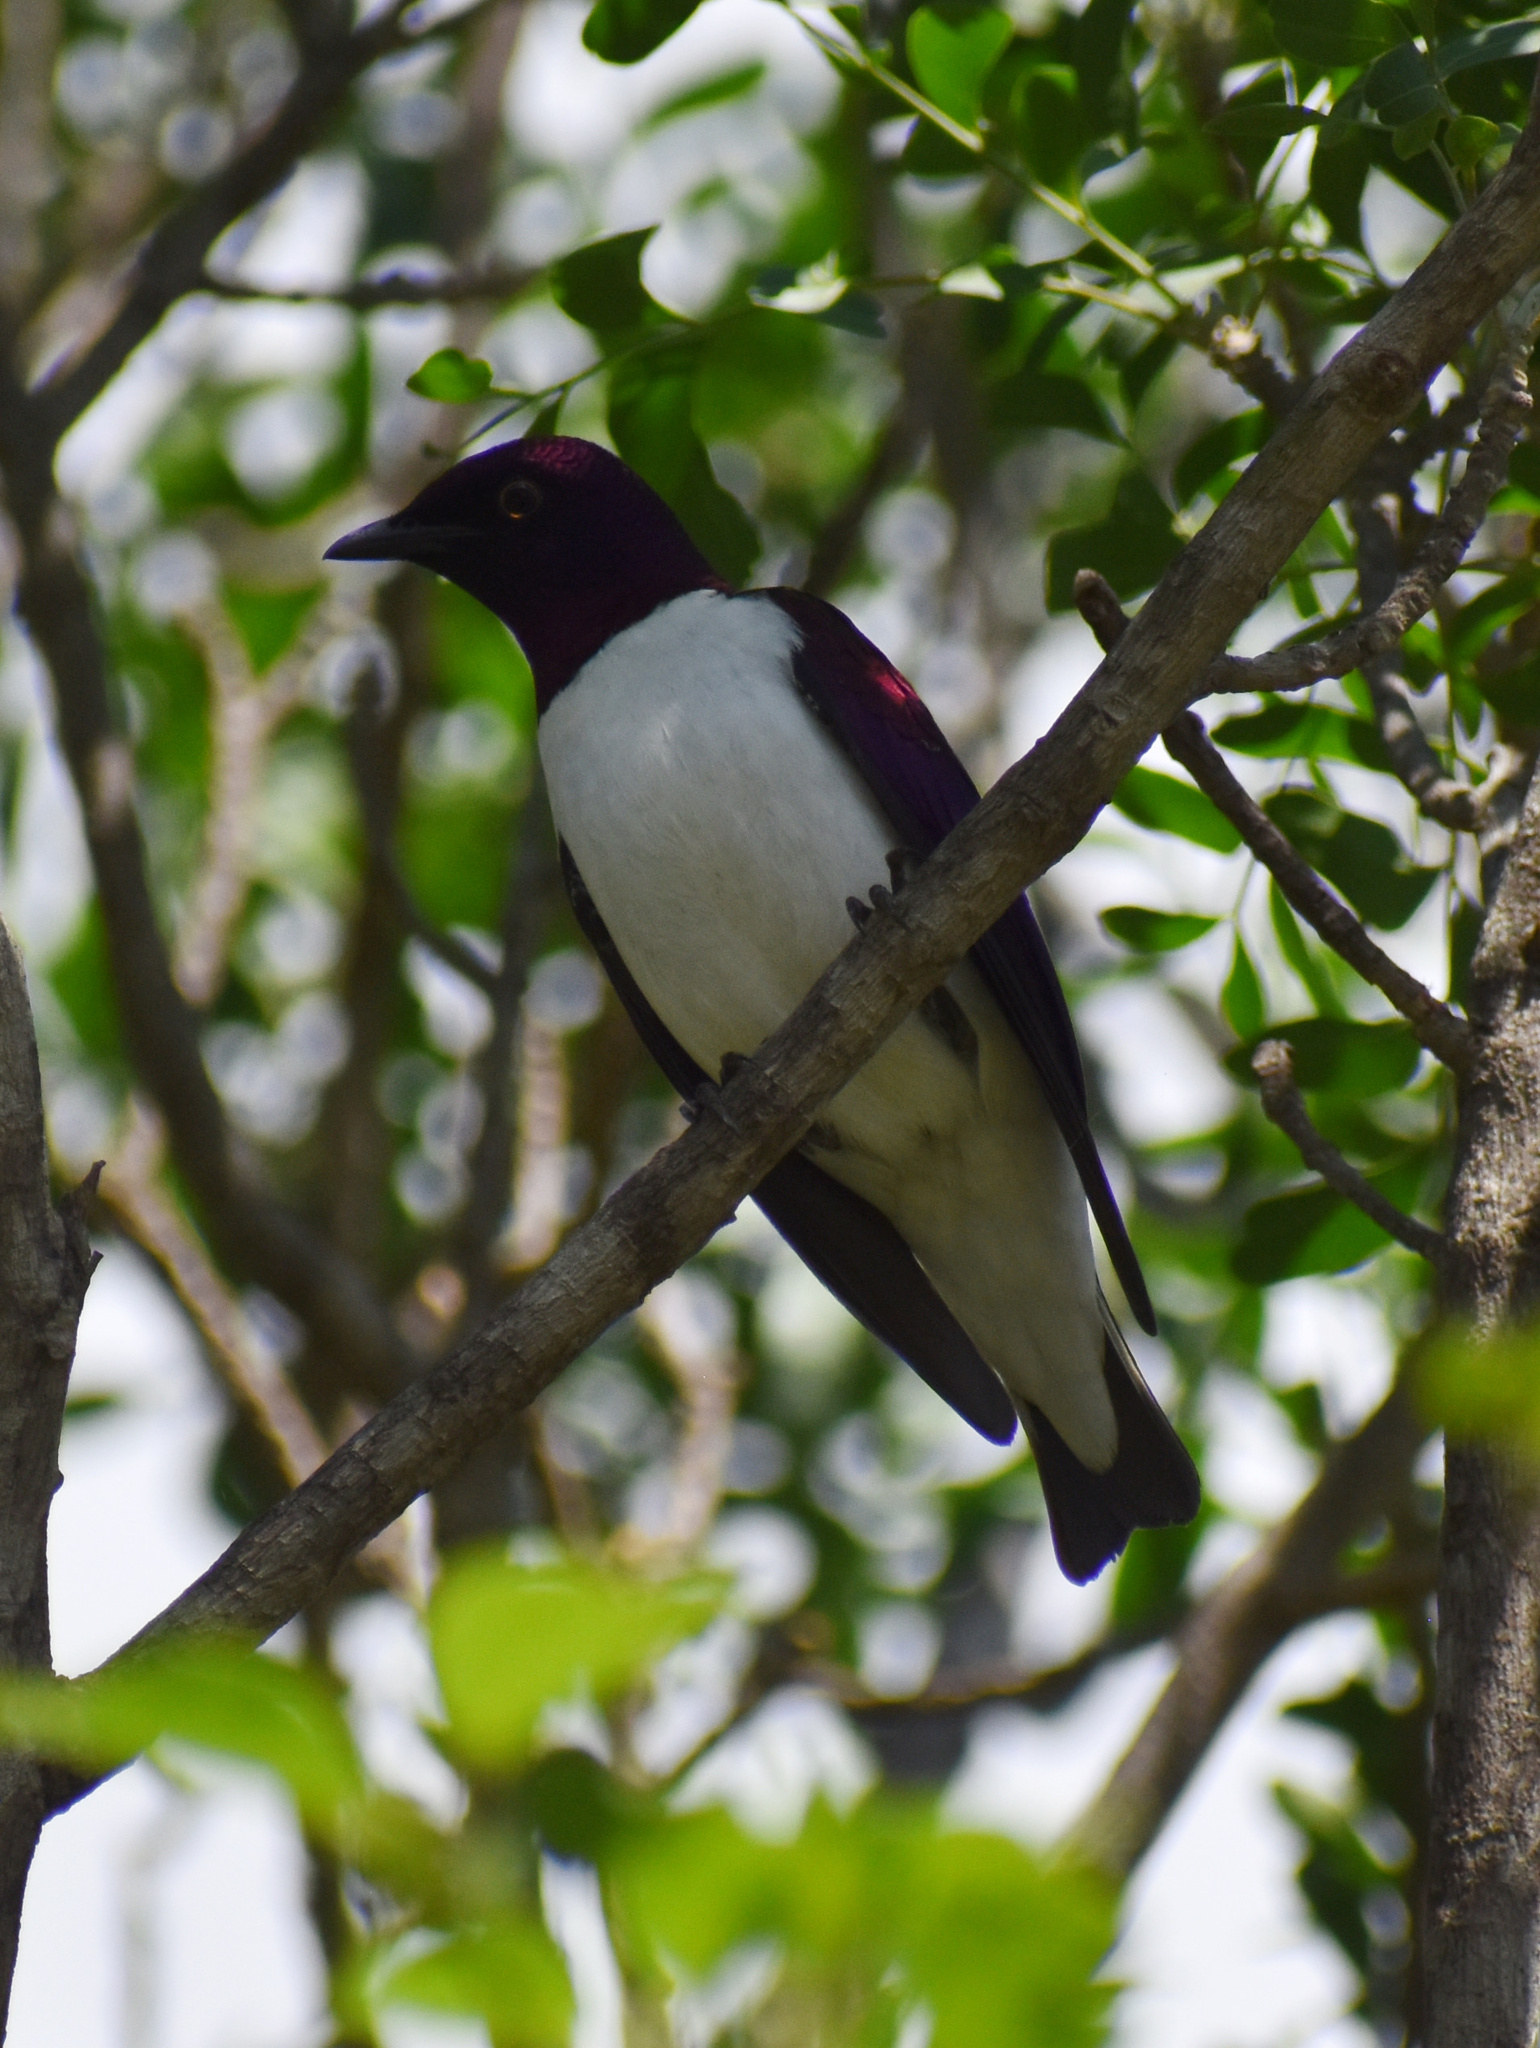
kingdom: Animalia
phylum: Chordata
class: Aves
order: Passeriformes
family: Sturnidae
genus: Cinnyricinclus
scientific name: Cinnyricinclus leucogaster
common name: Violet-backed starling
